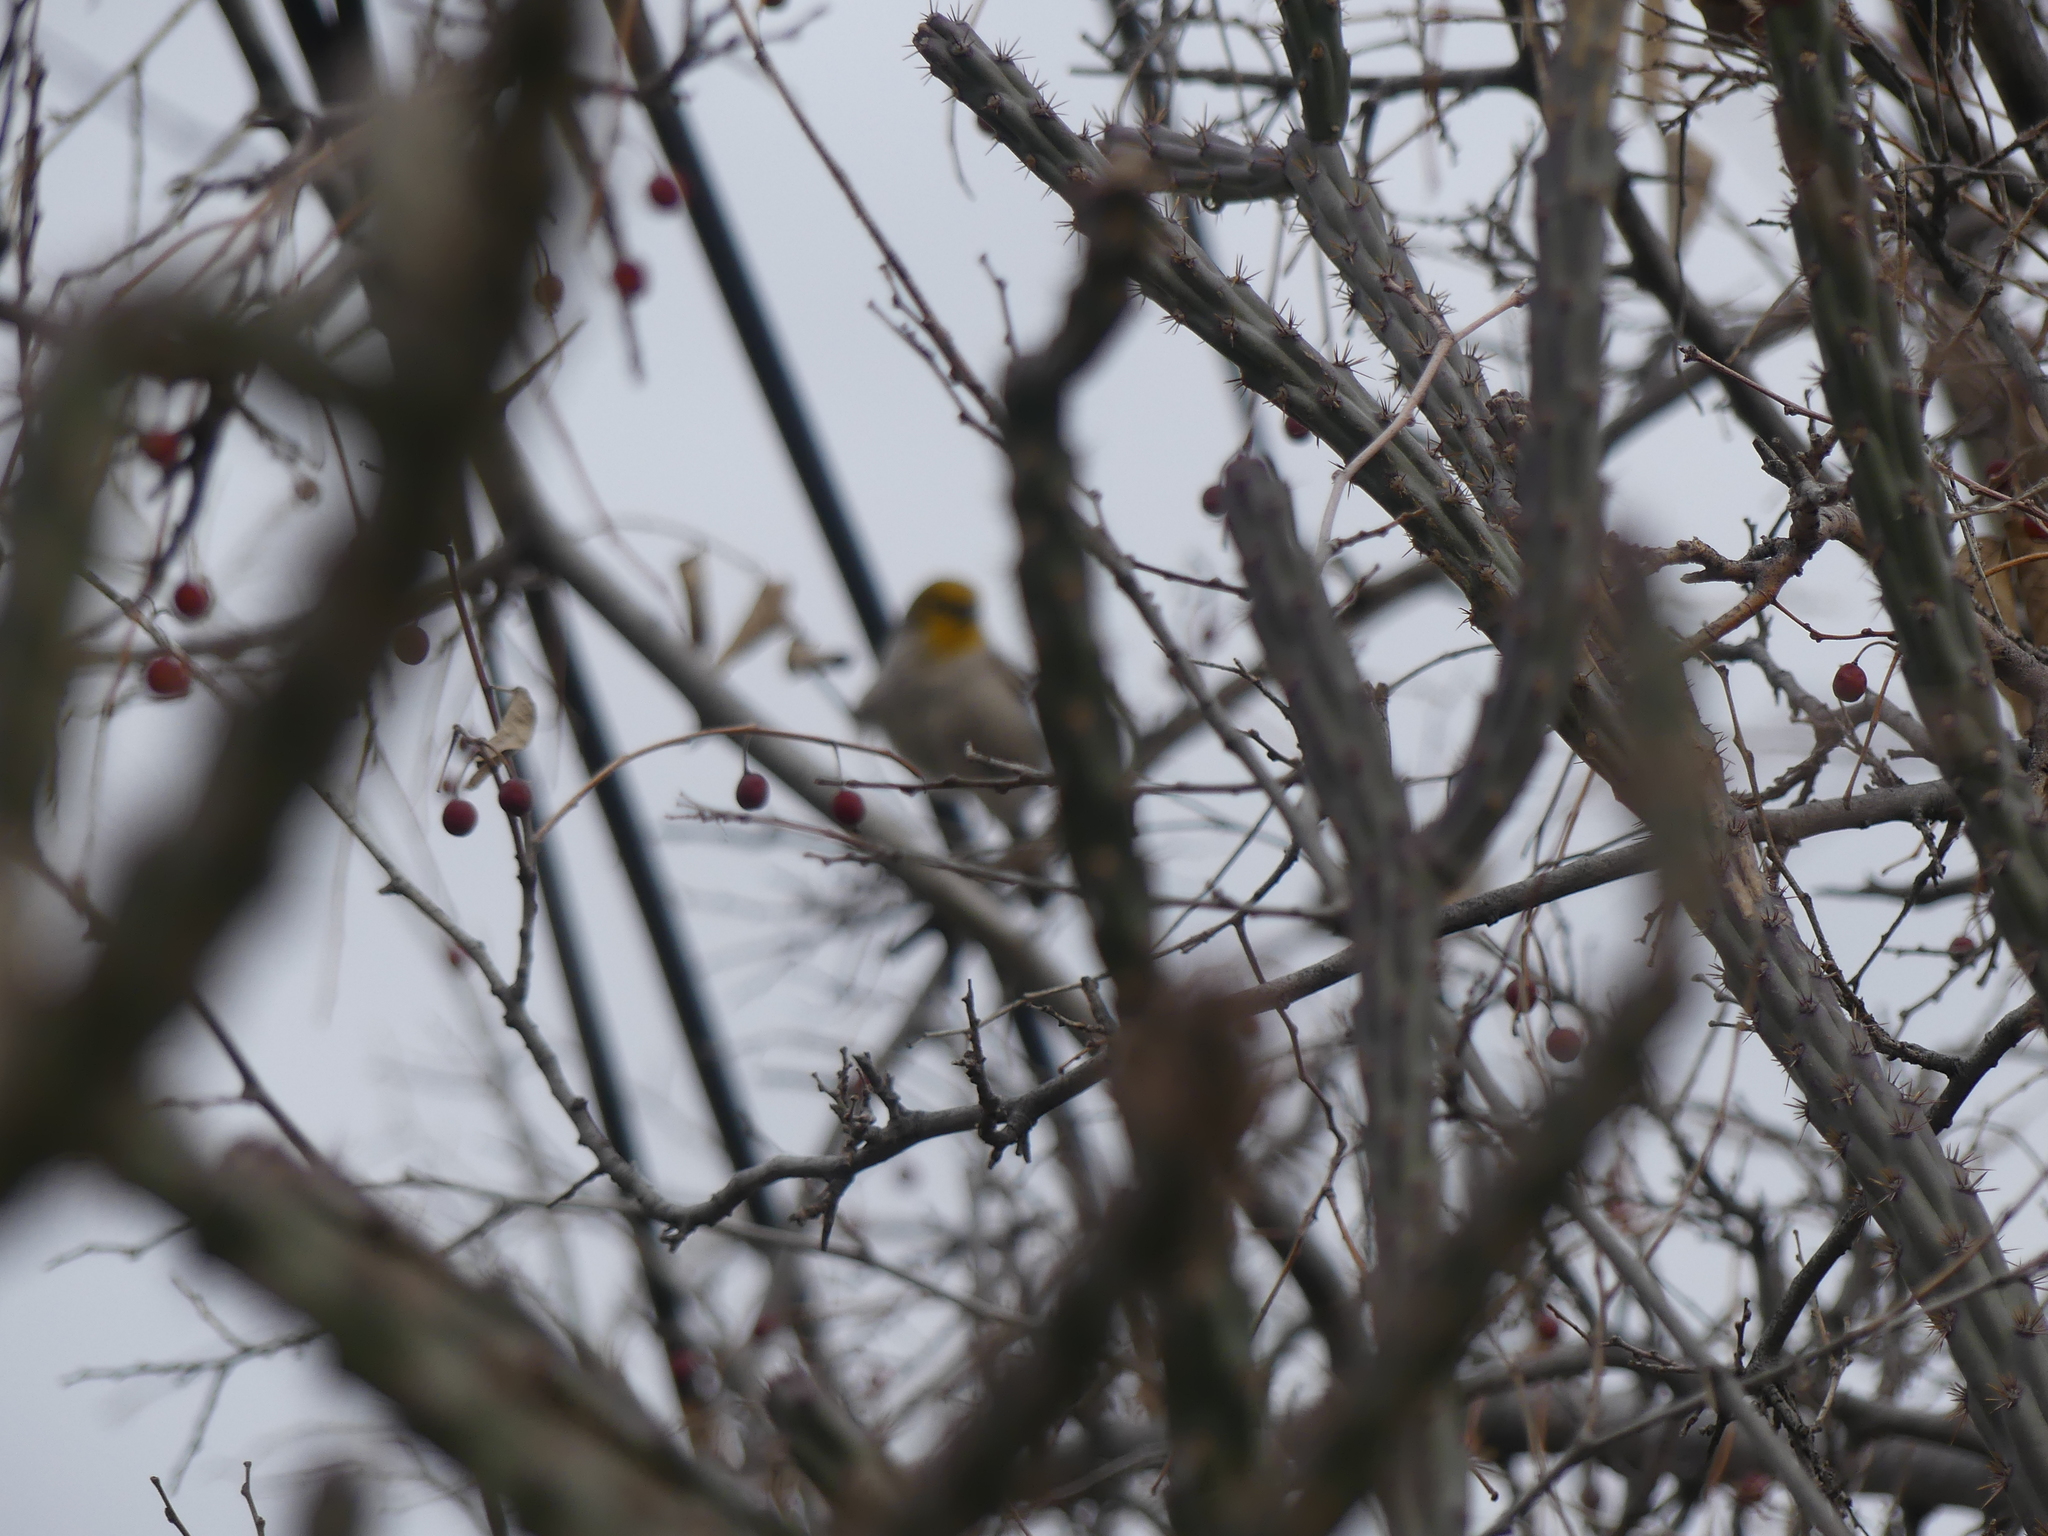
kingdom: Animalia
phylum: Chordata
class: Aves
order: Passeriformes
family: Remizidae
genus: Auriparus
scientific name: Auriparus flaviceps
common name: Verdin
